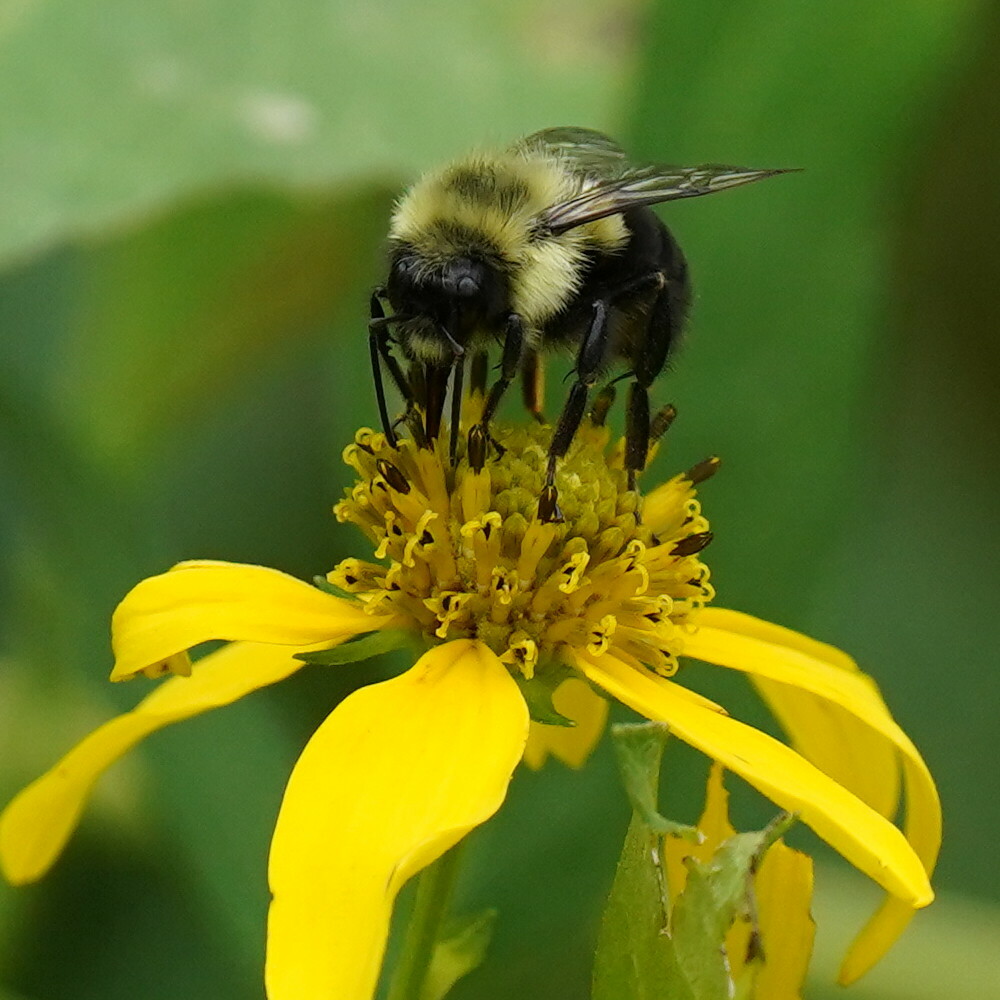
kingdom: Animalia
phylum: Arthropoda
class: Insecta
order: Hymenoptera
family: Apidae
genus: Bombus
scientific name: Bombus impatiens
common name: Common eastern bumble bee
